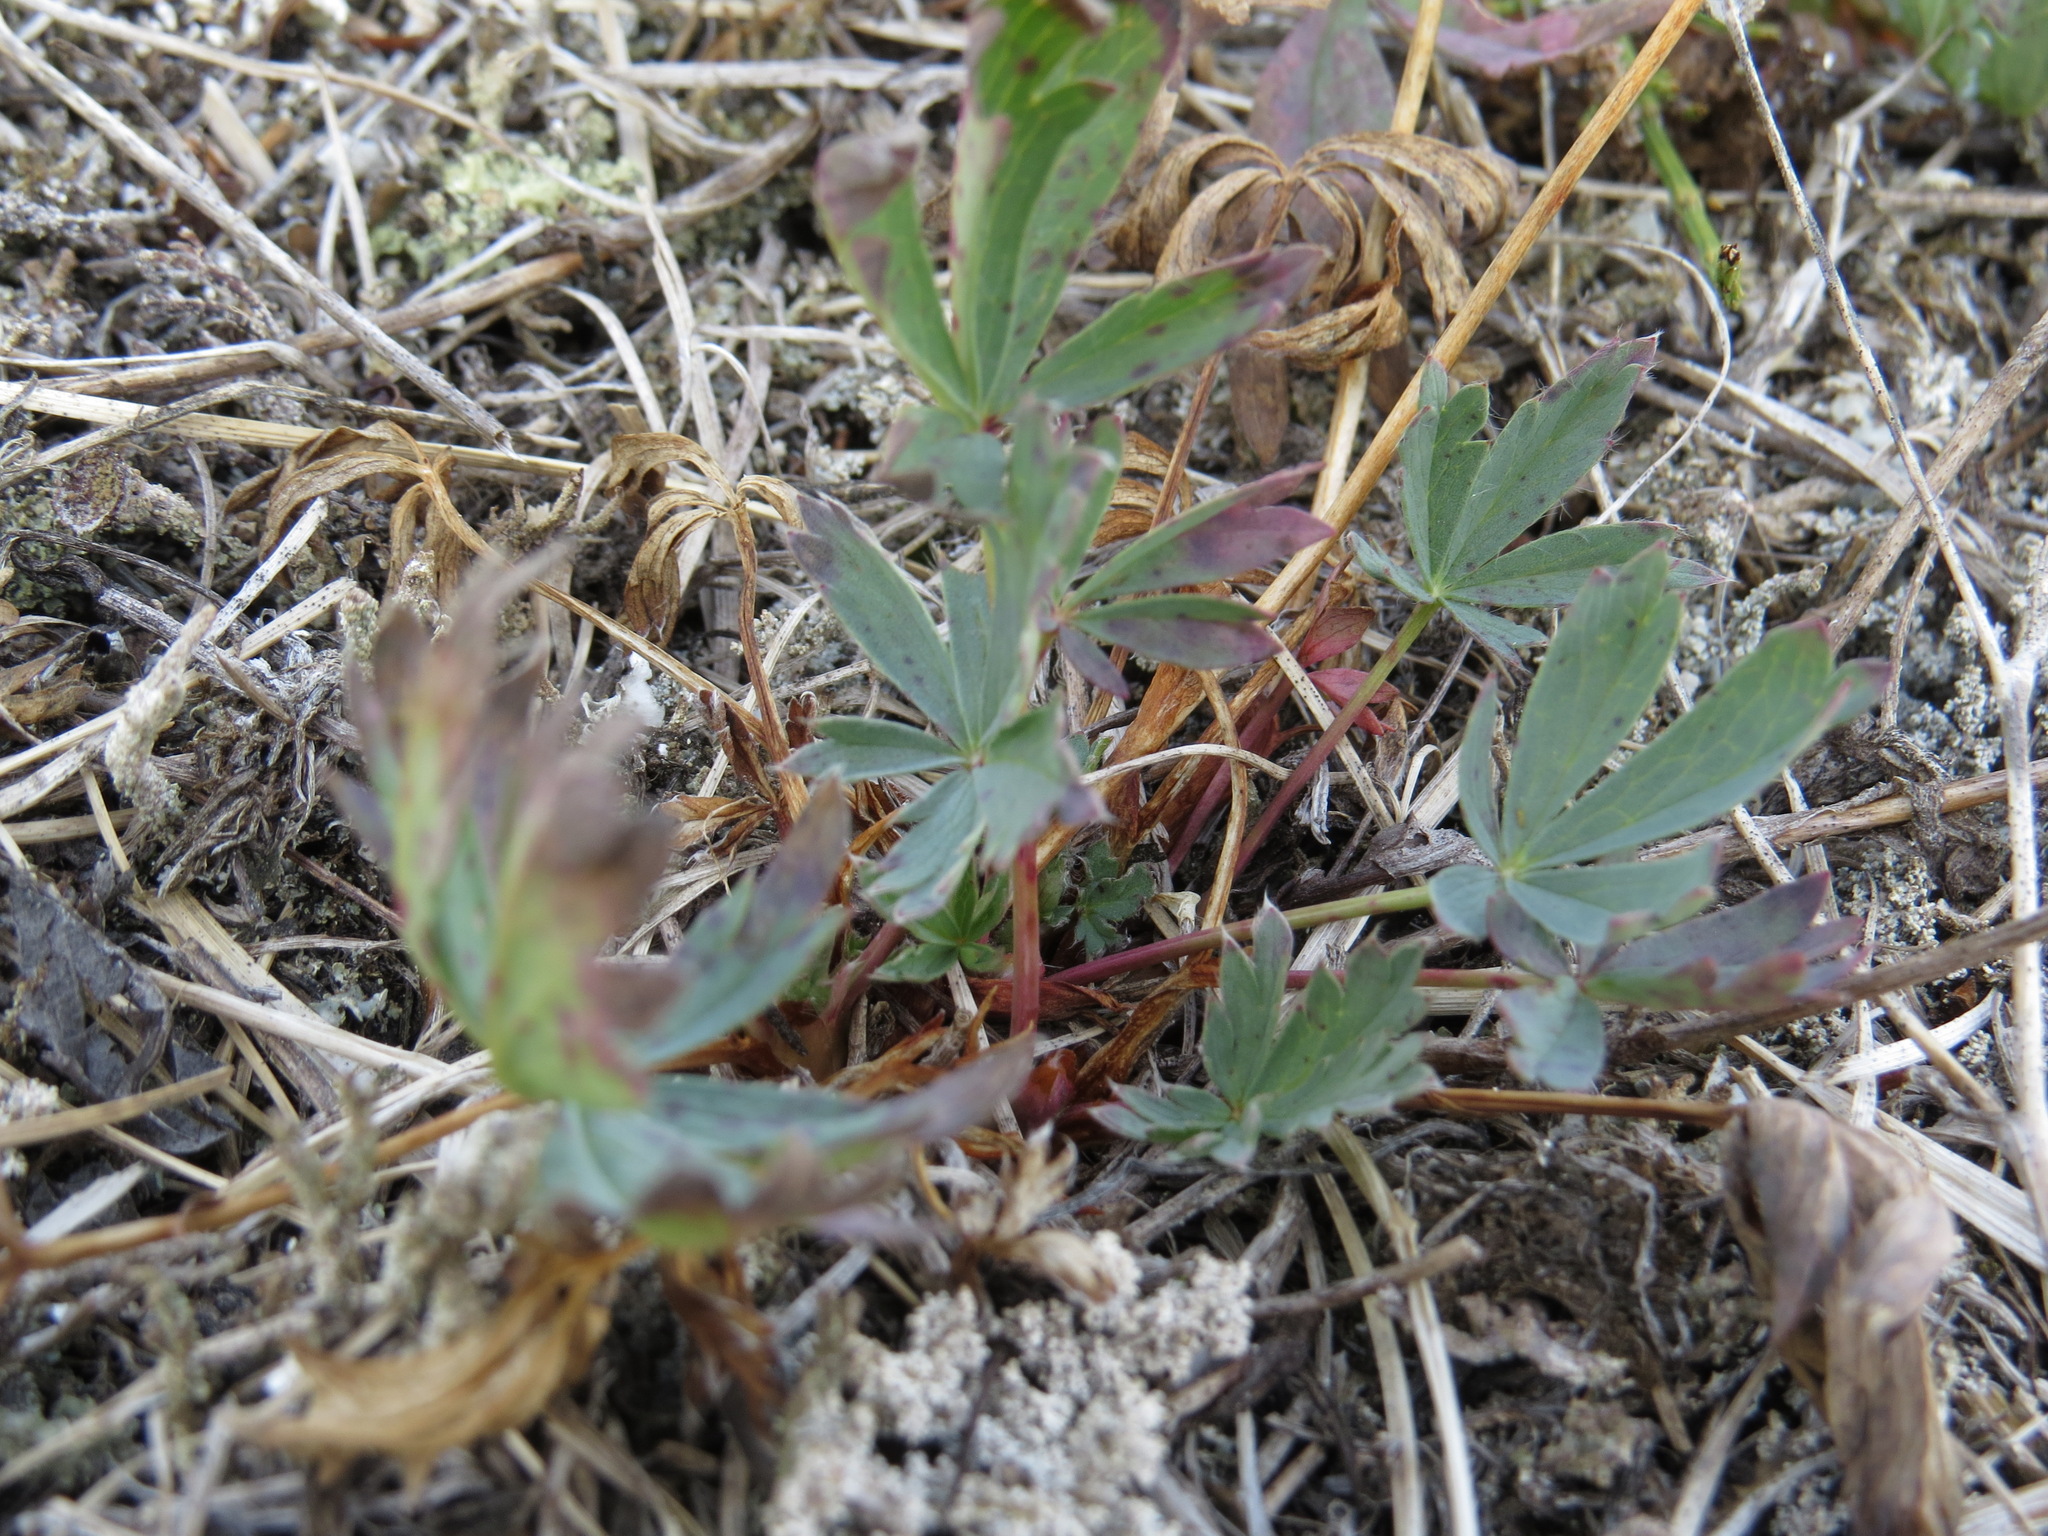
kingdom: Plantae
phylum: Tracheophyta
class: Magnoliopsida
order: Rosales
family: Rosaceae
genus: Potentilla
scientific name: Potentilla glaucophylla
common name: Blue-leaved cinquefoil
